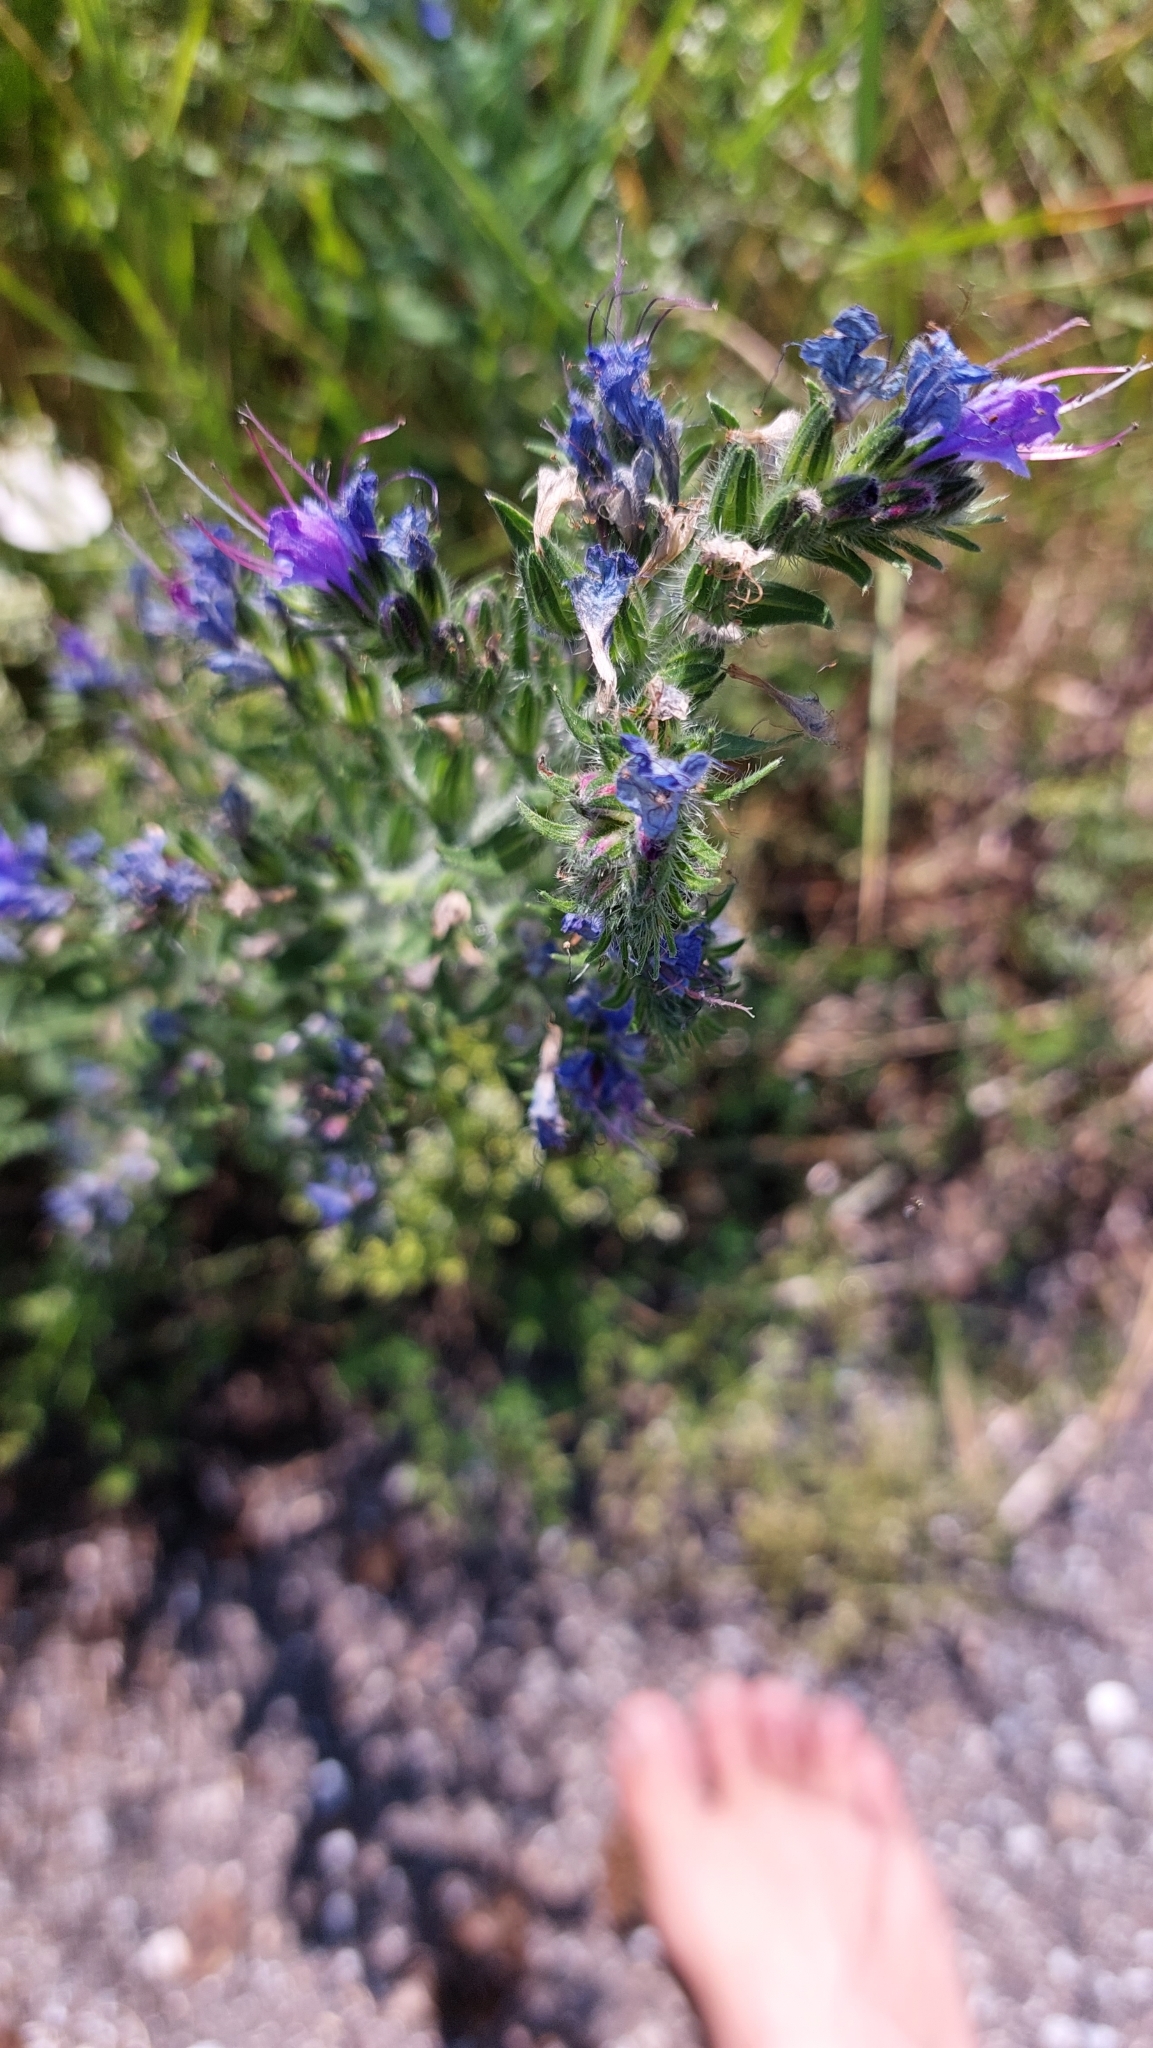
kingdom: Plantae
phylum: Tracheophyta
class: Magnoliopsida
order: Boraginales
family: Boraginaceae
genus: Echium
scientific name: Echium vulgare
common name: Common viper's bugloss
